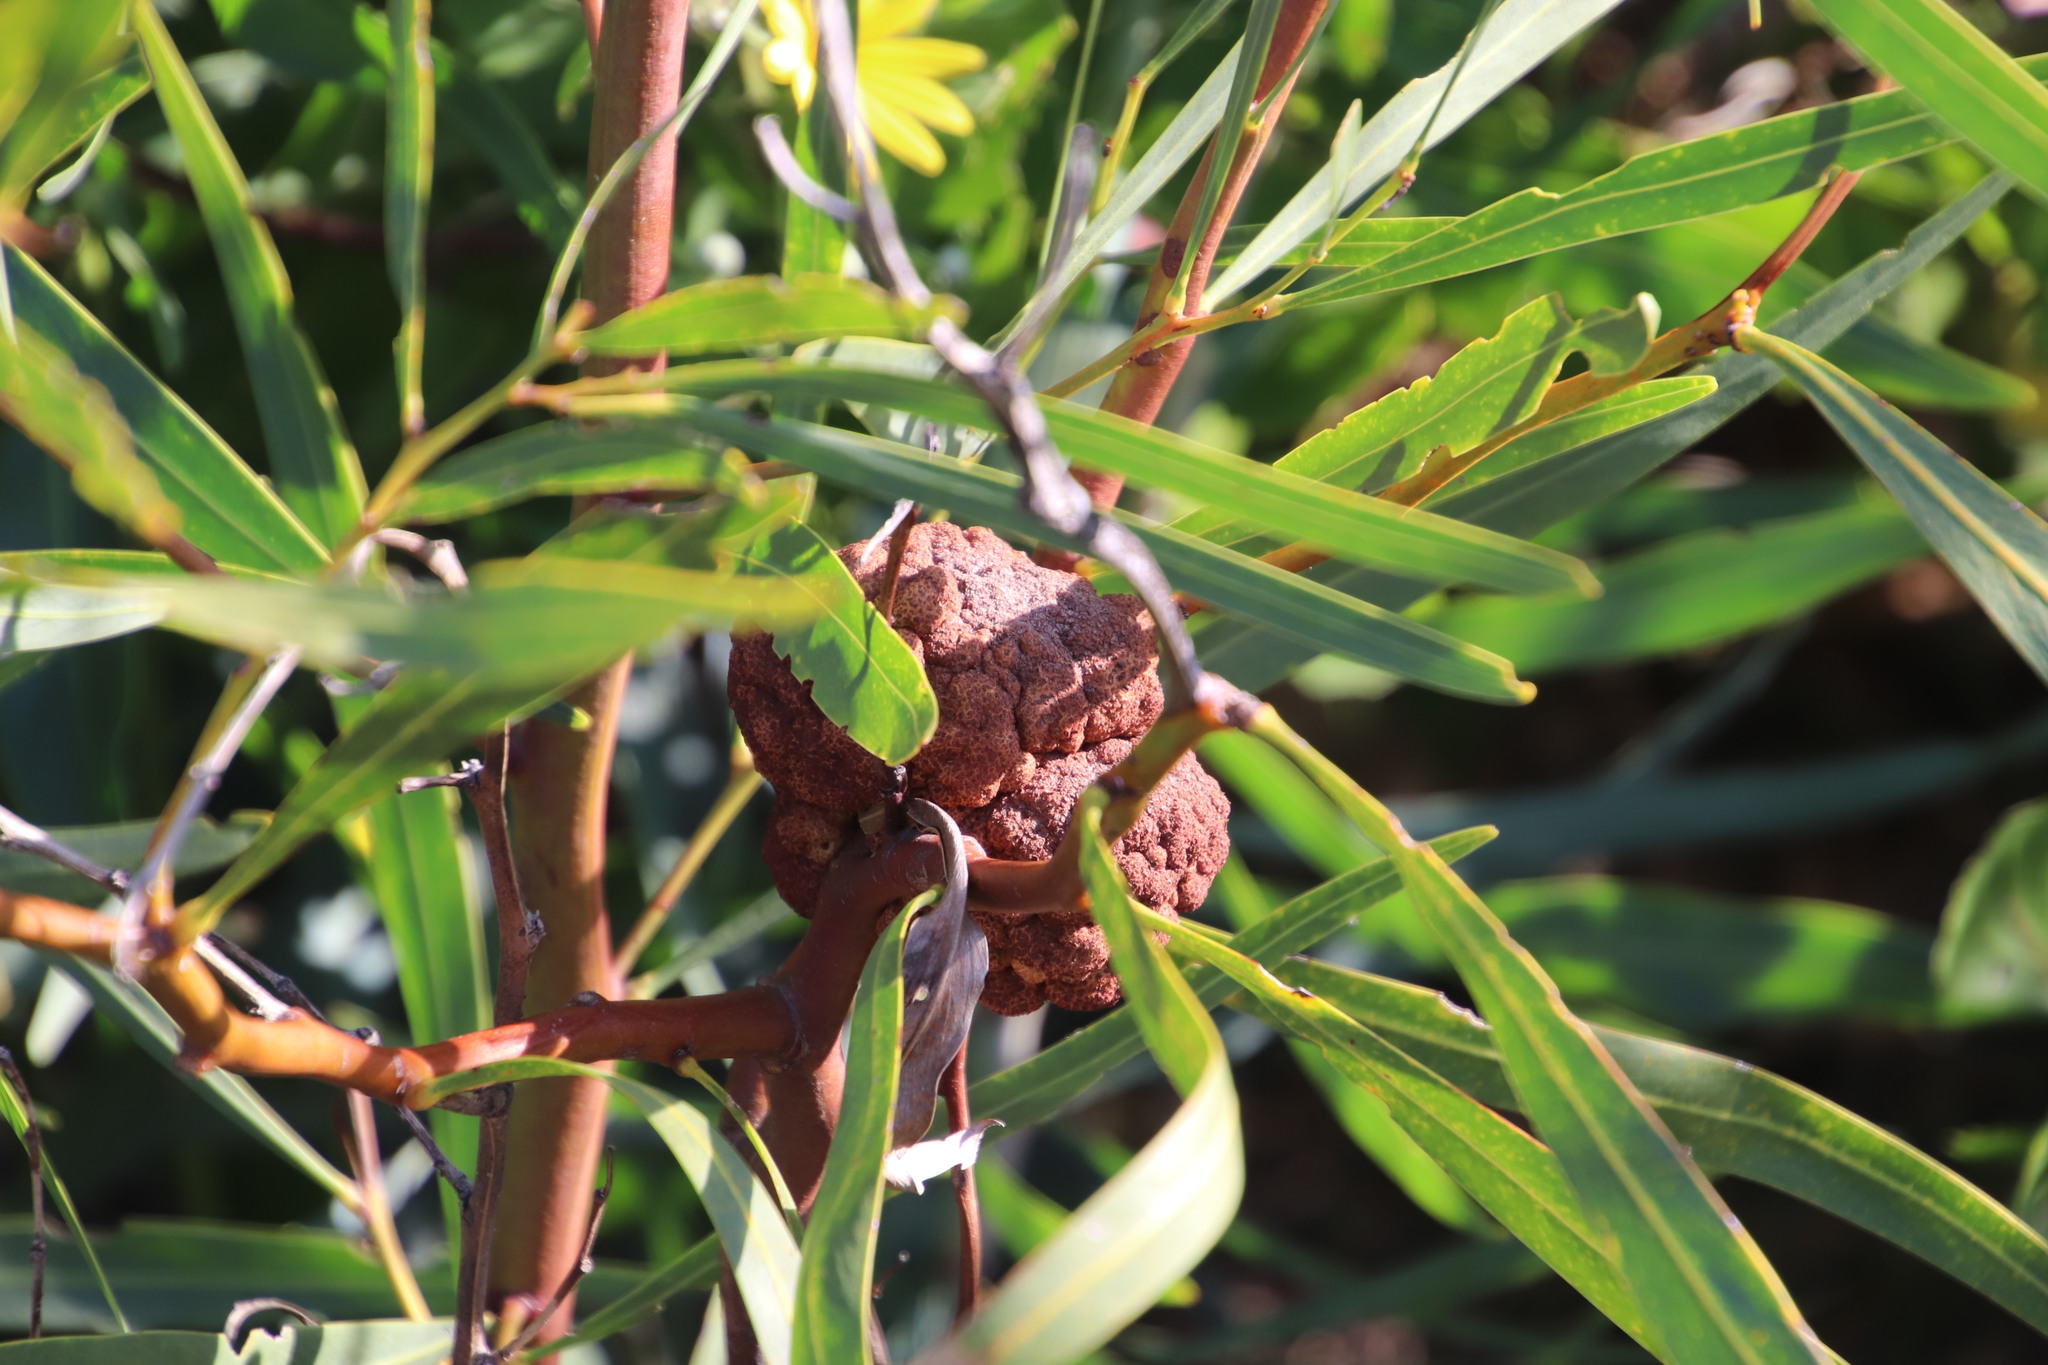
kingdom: Fungi
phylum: Basidiomycota
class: Pucciniomycetes
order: Pucciniales
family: Uromycladiaceae
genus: Uromycladium
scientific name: Uromycladium morrisii
